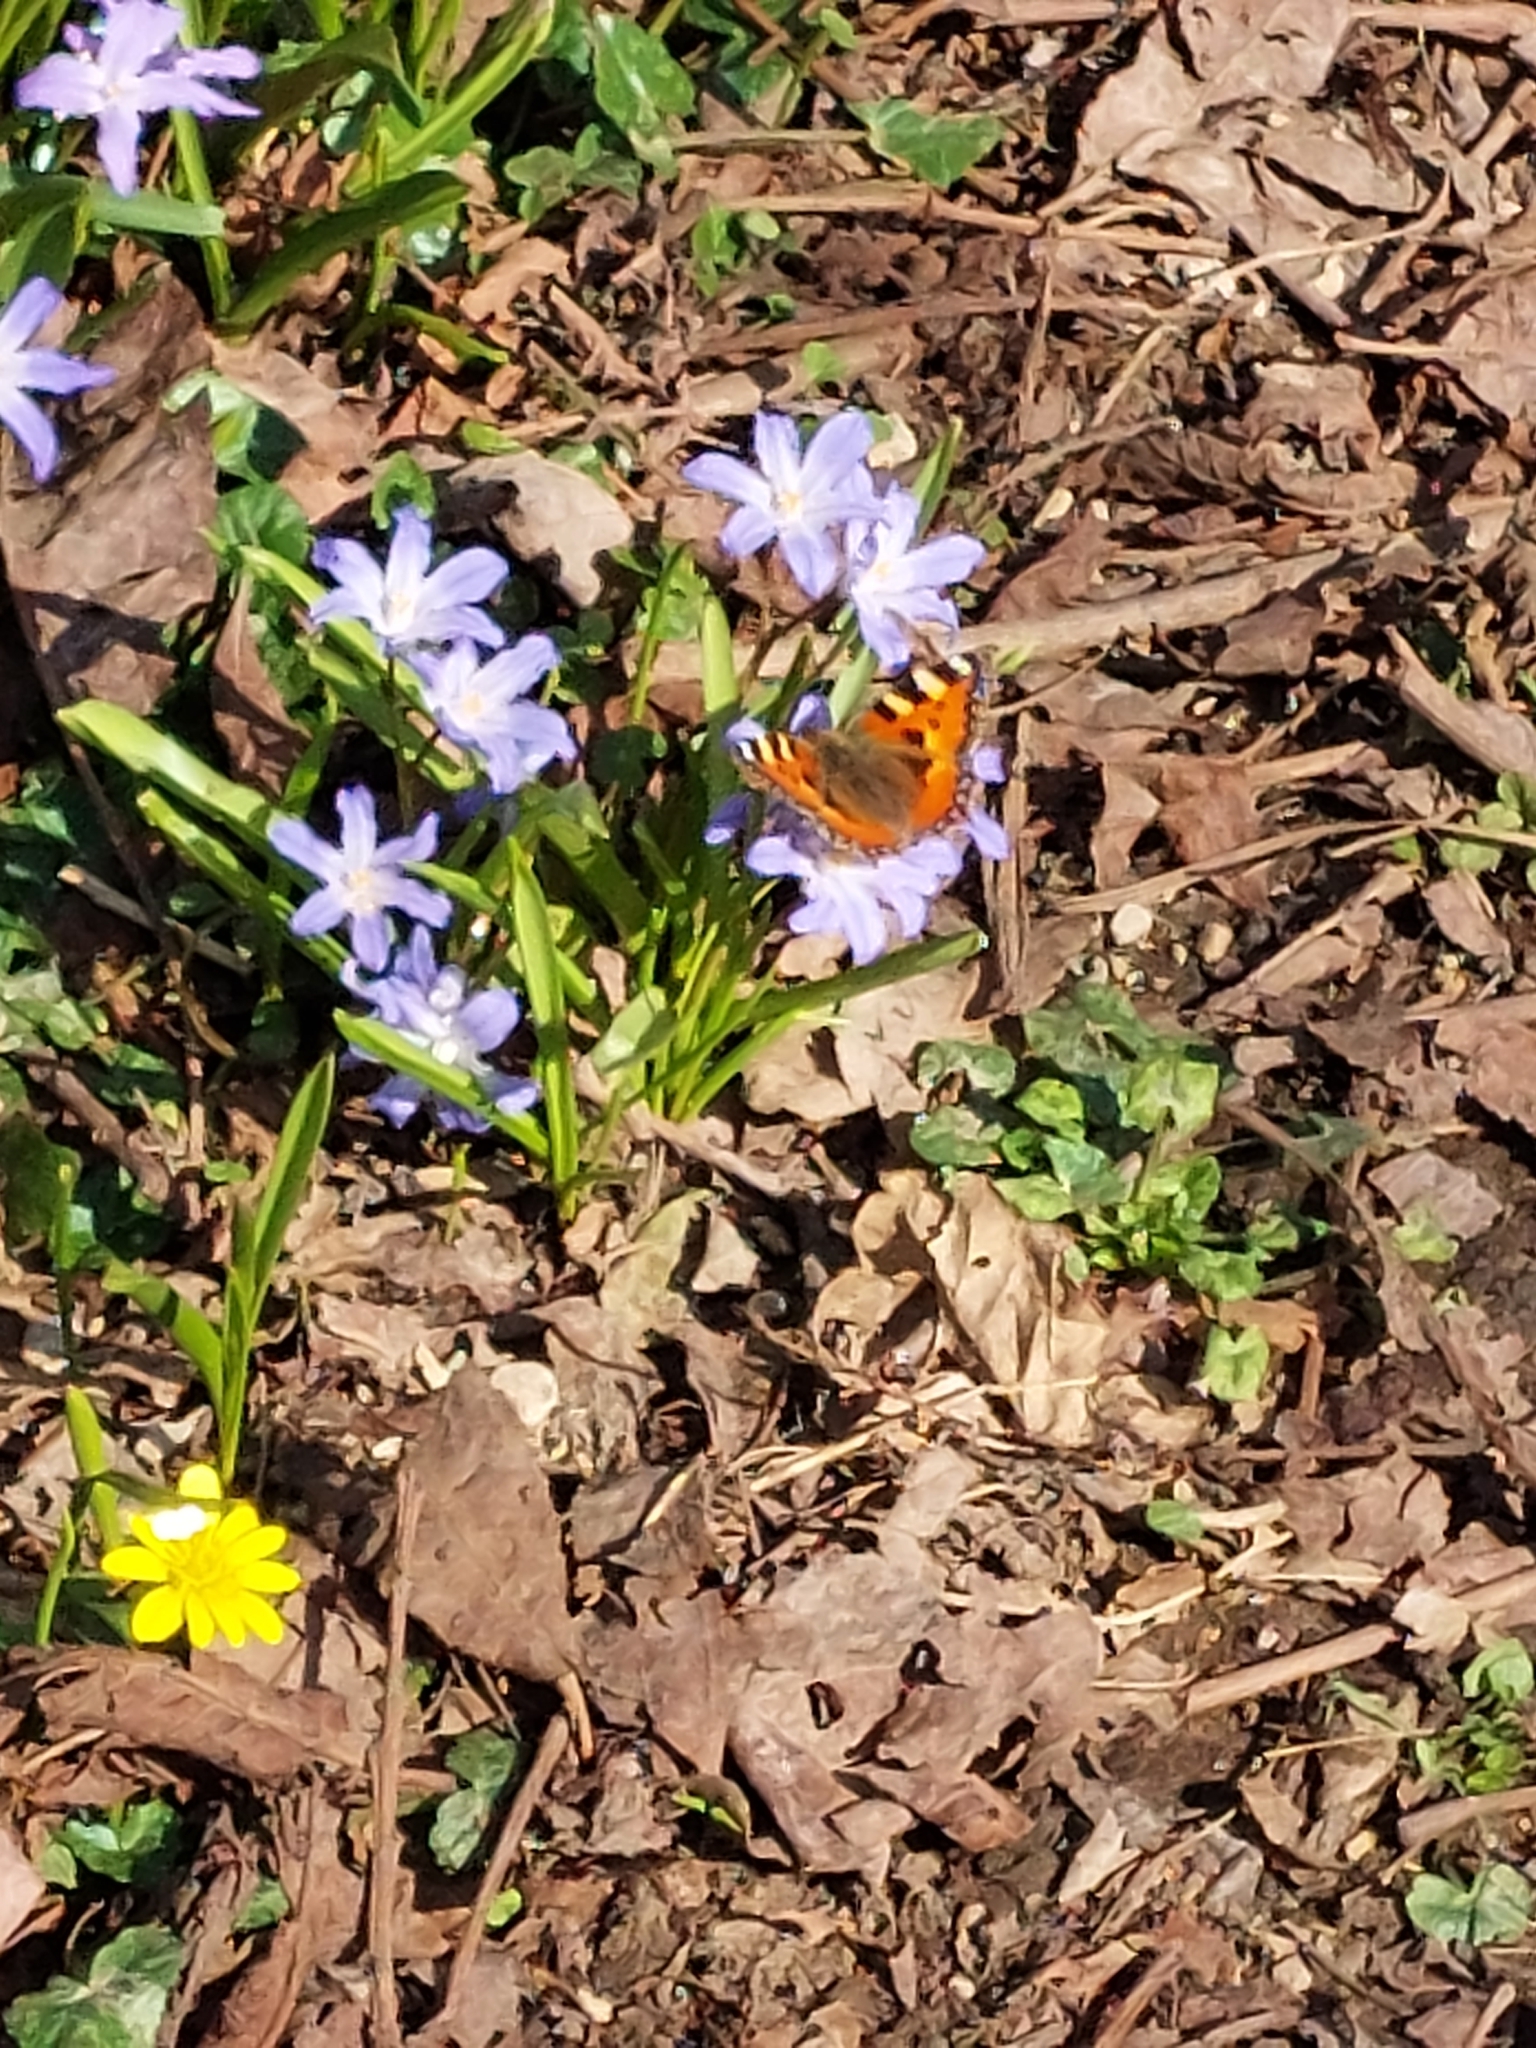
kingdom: Animalia
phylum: Arthropoda
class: Insecta
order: Lepidoptera
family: Nymphalidae
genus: Aglais
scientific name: Aglais urticae
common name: Small tortoiseshell
